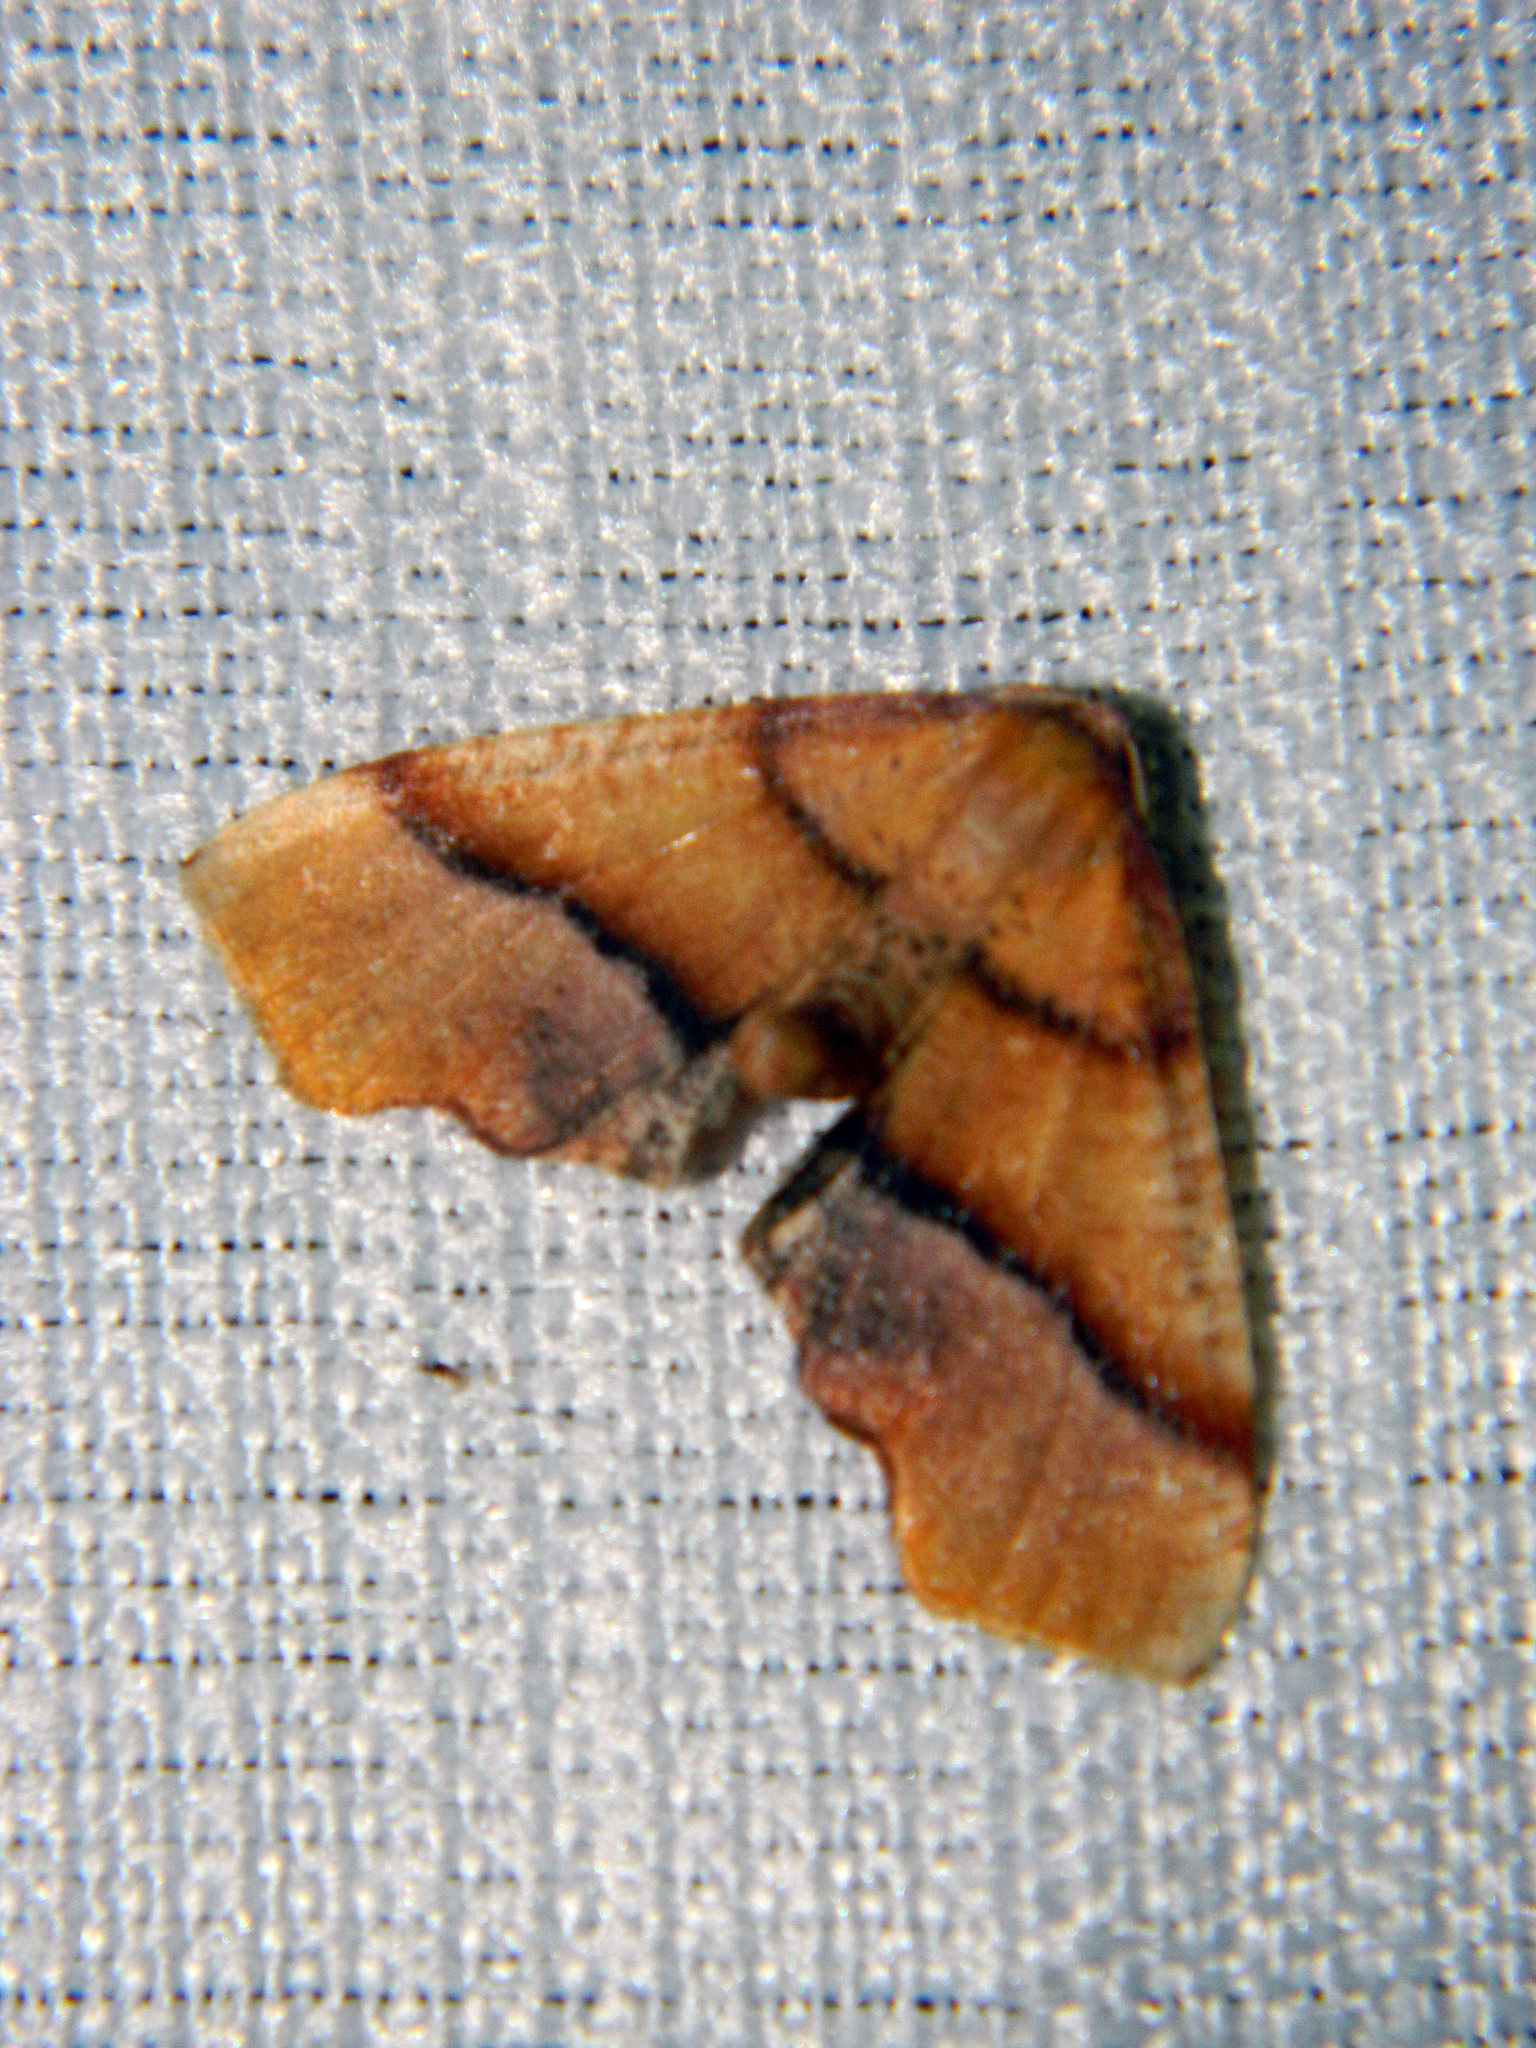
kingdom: Animalia
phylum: Arthropoda
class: Insecta
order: Lepidoptera
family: Geometridae
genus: Plagodis
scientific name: Plagodis phlogosaria
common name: Straight-lined plagodis
